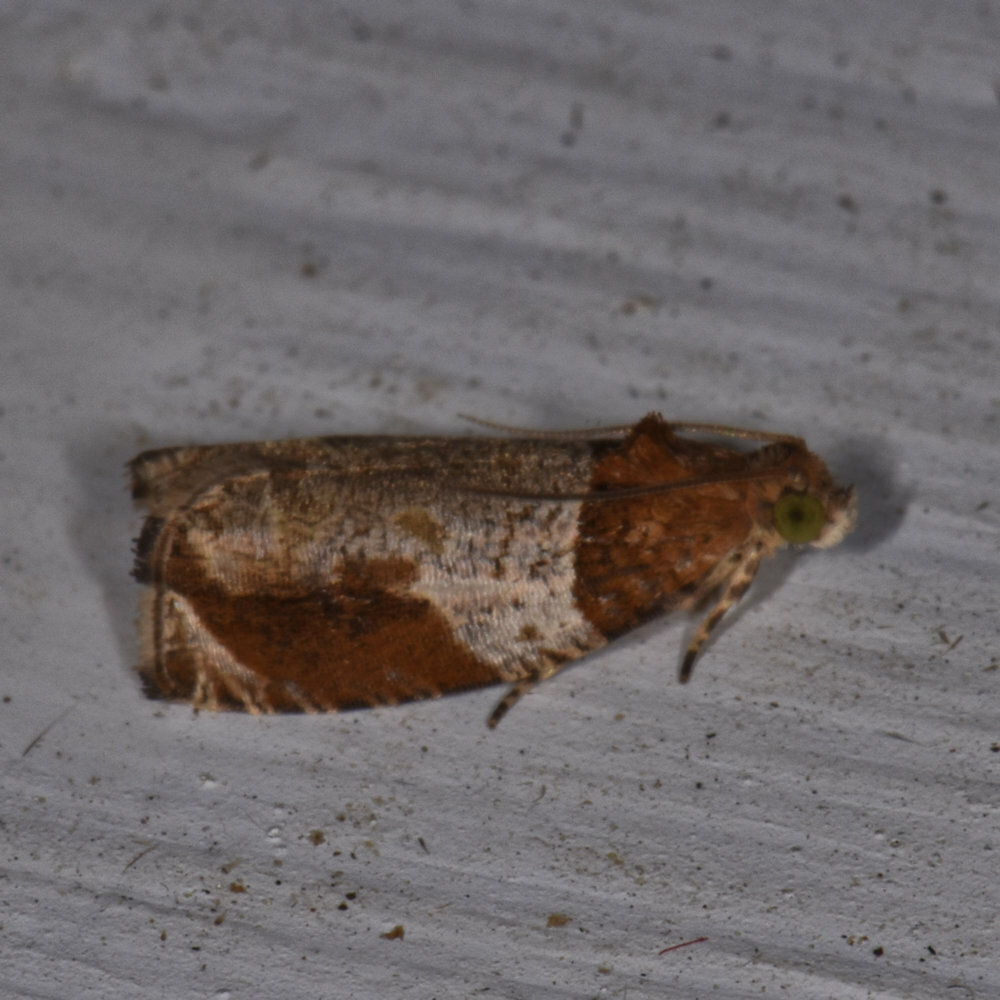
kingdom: Animalia
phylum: Arthropoda
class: Insecta
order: Lepidoptera
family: Tortricidae
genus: Olethreutes
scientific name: Olethreutes ferriferana
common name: Hydrangea leaftier moth
